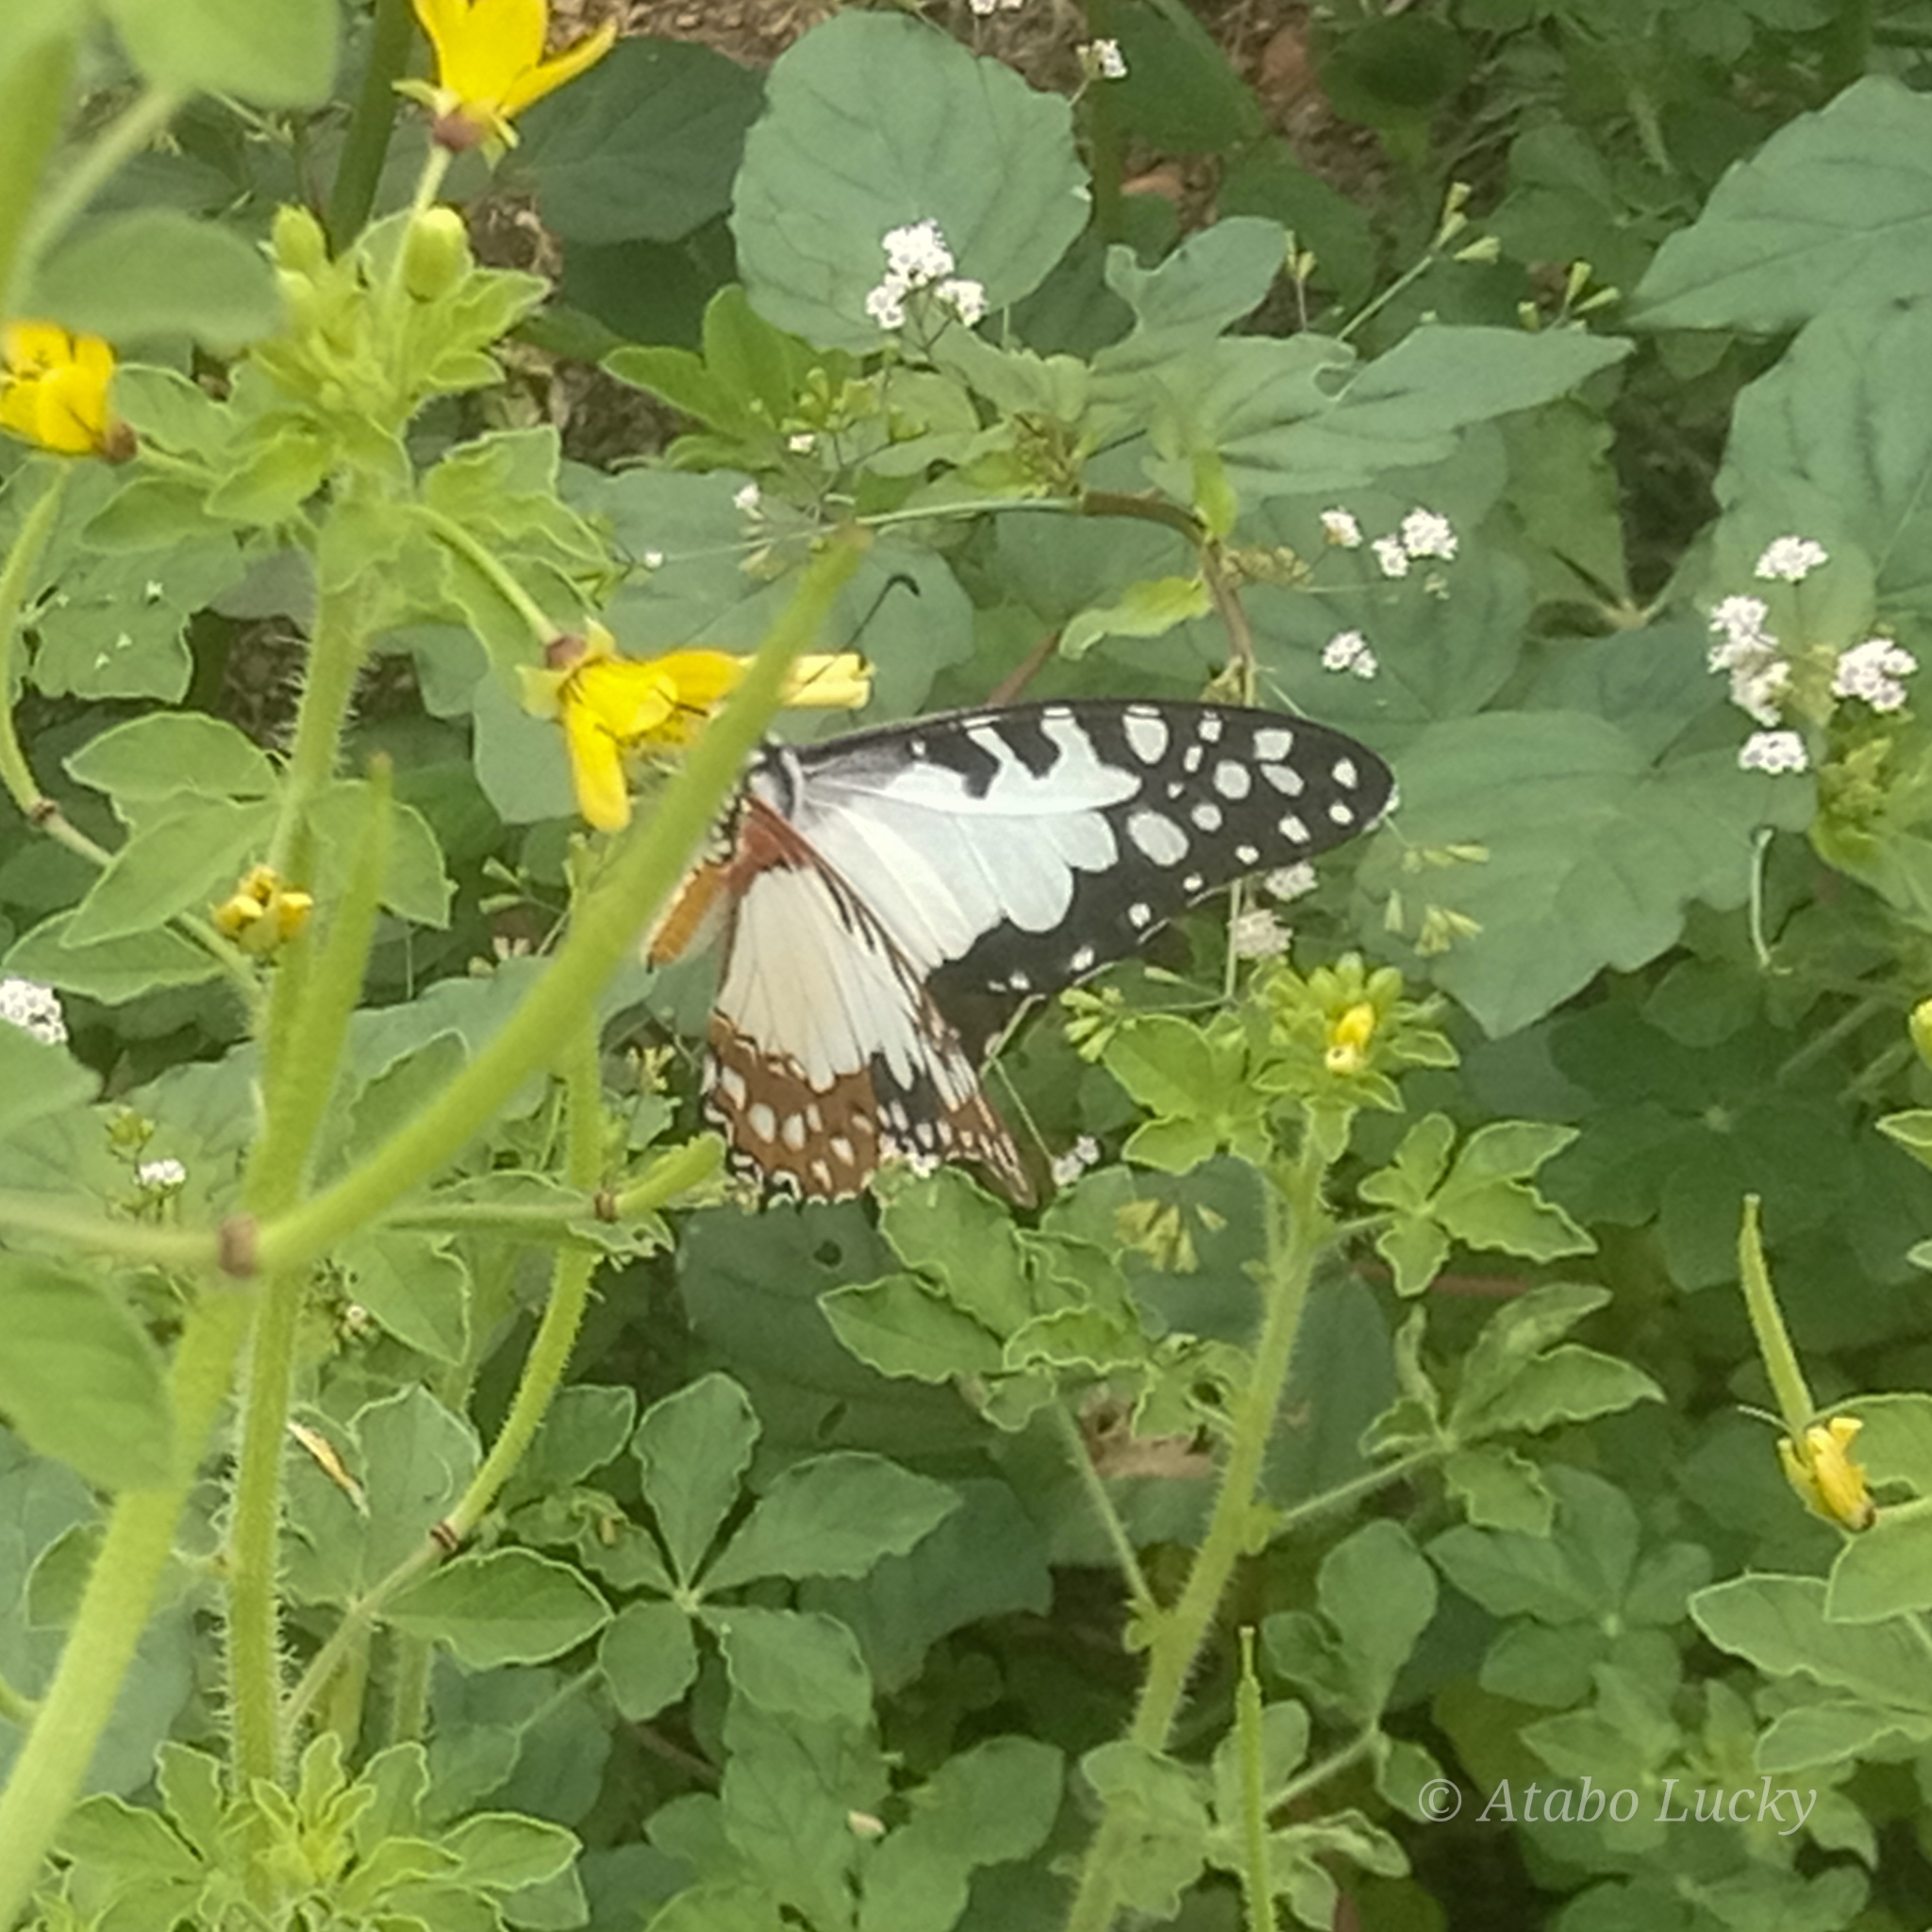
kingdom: Animalia
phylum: Arthropoda
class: Insecta
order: Lepidoptera
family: Papilionidae
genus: Graphium
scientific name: Graphium angolanus
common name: Angola white-lady swordtail
